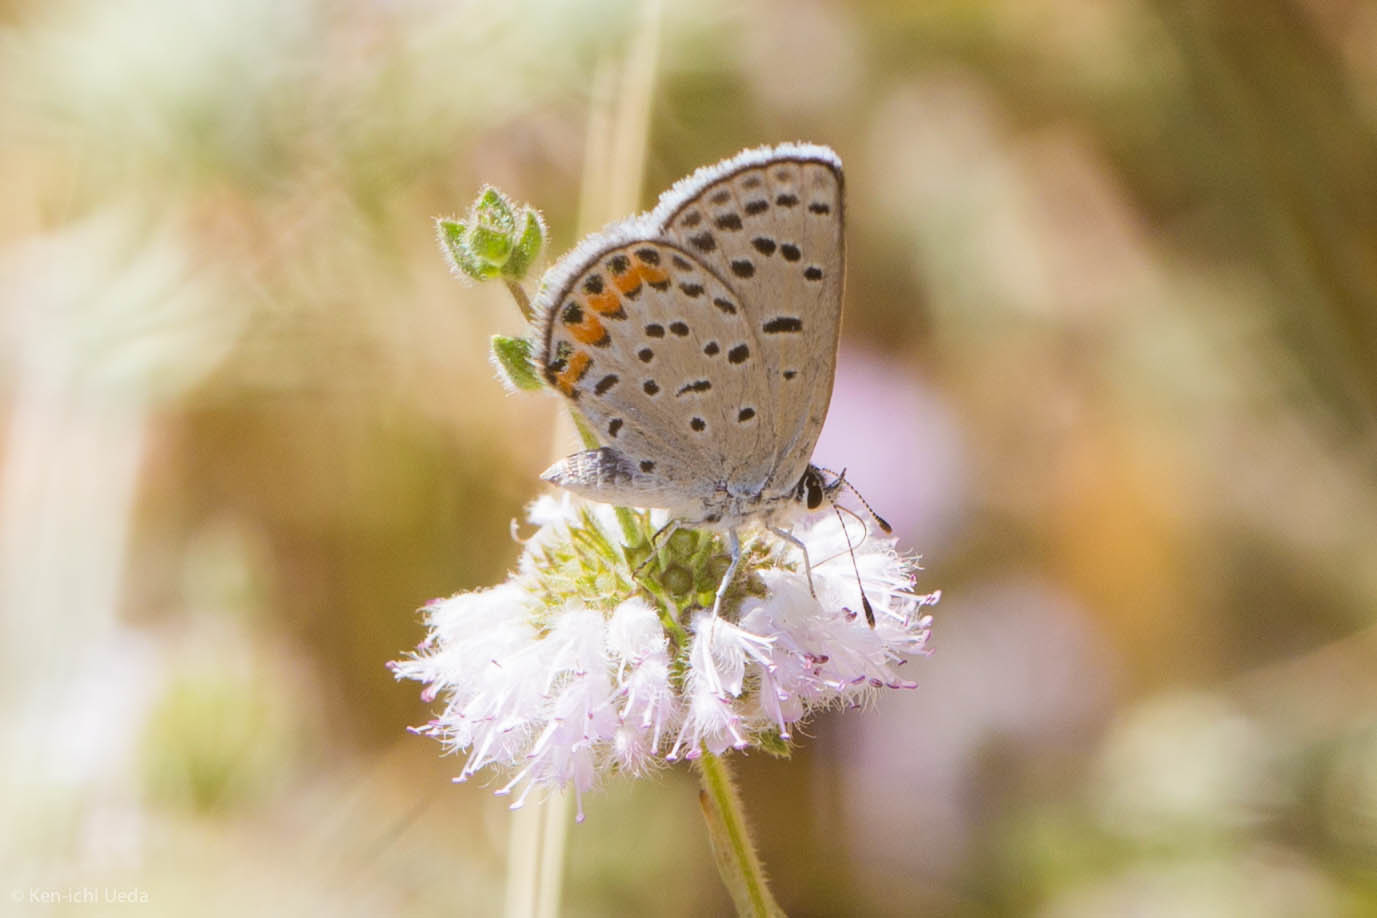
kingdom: Animalia
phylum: Arthropoda
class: Insecta
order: Lepidoptera
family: Lycaenidae
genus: Icaricia
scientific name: Icaricia acmon
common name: Acmon blue
